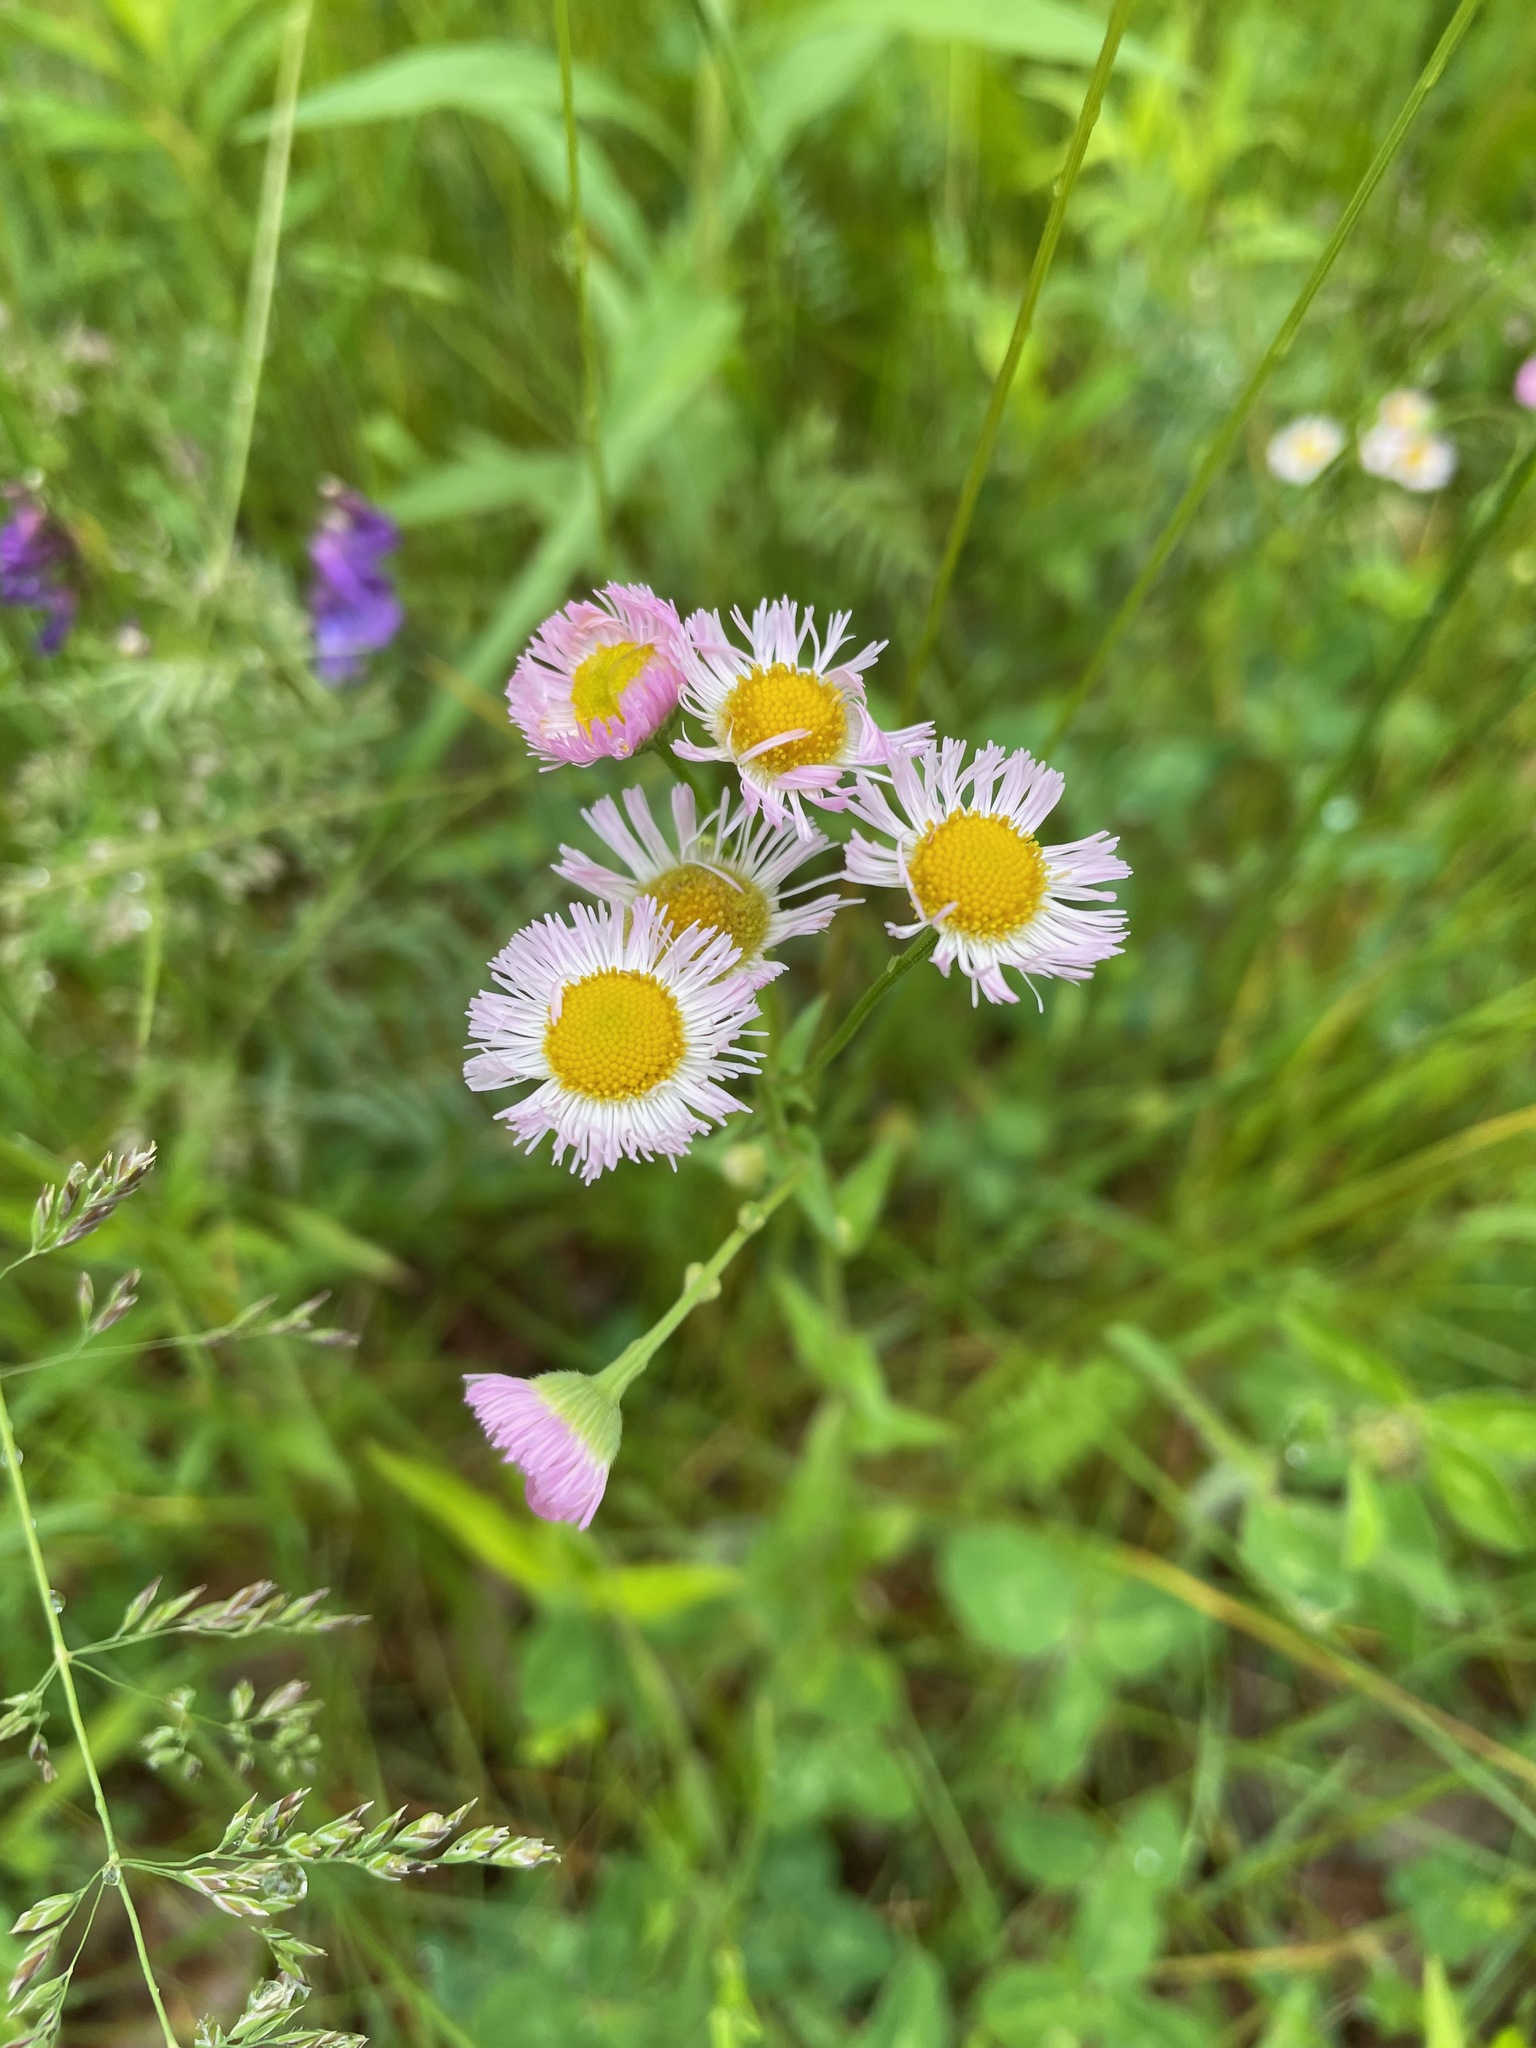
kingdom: Plantae
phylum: Tracheophyta
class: Magnoliopsida
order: Asterales
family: Asteraceae
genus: Erigeron
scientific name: Erigeron philadelphicus
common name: Robin's-plantain
